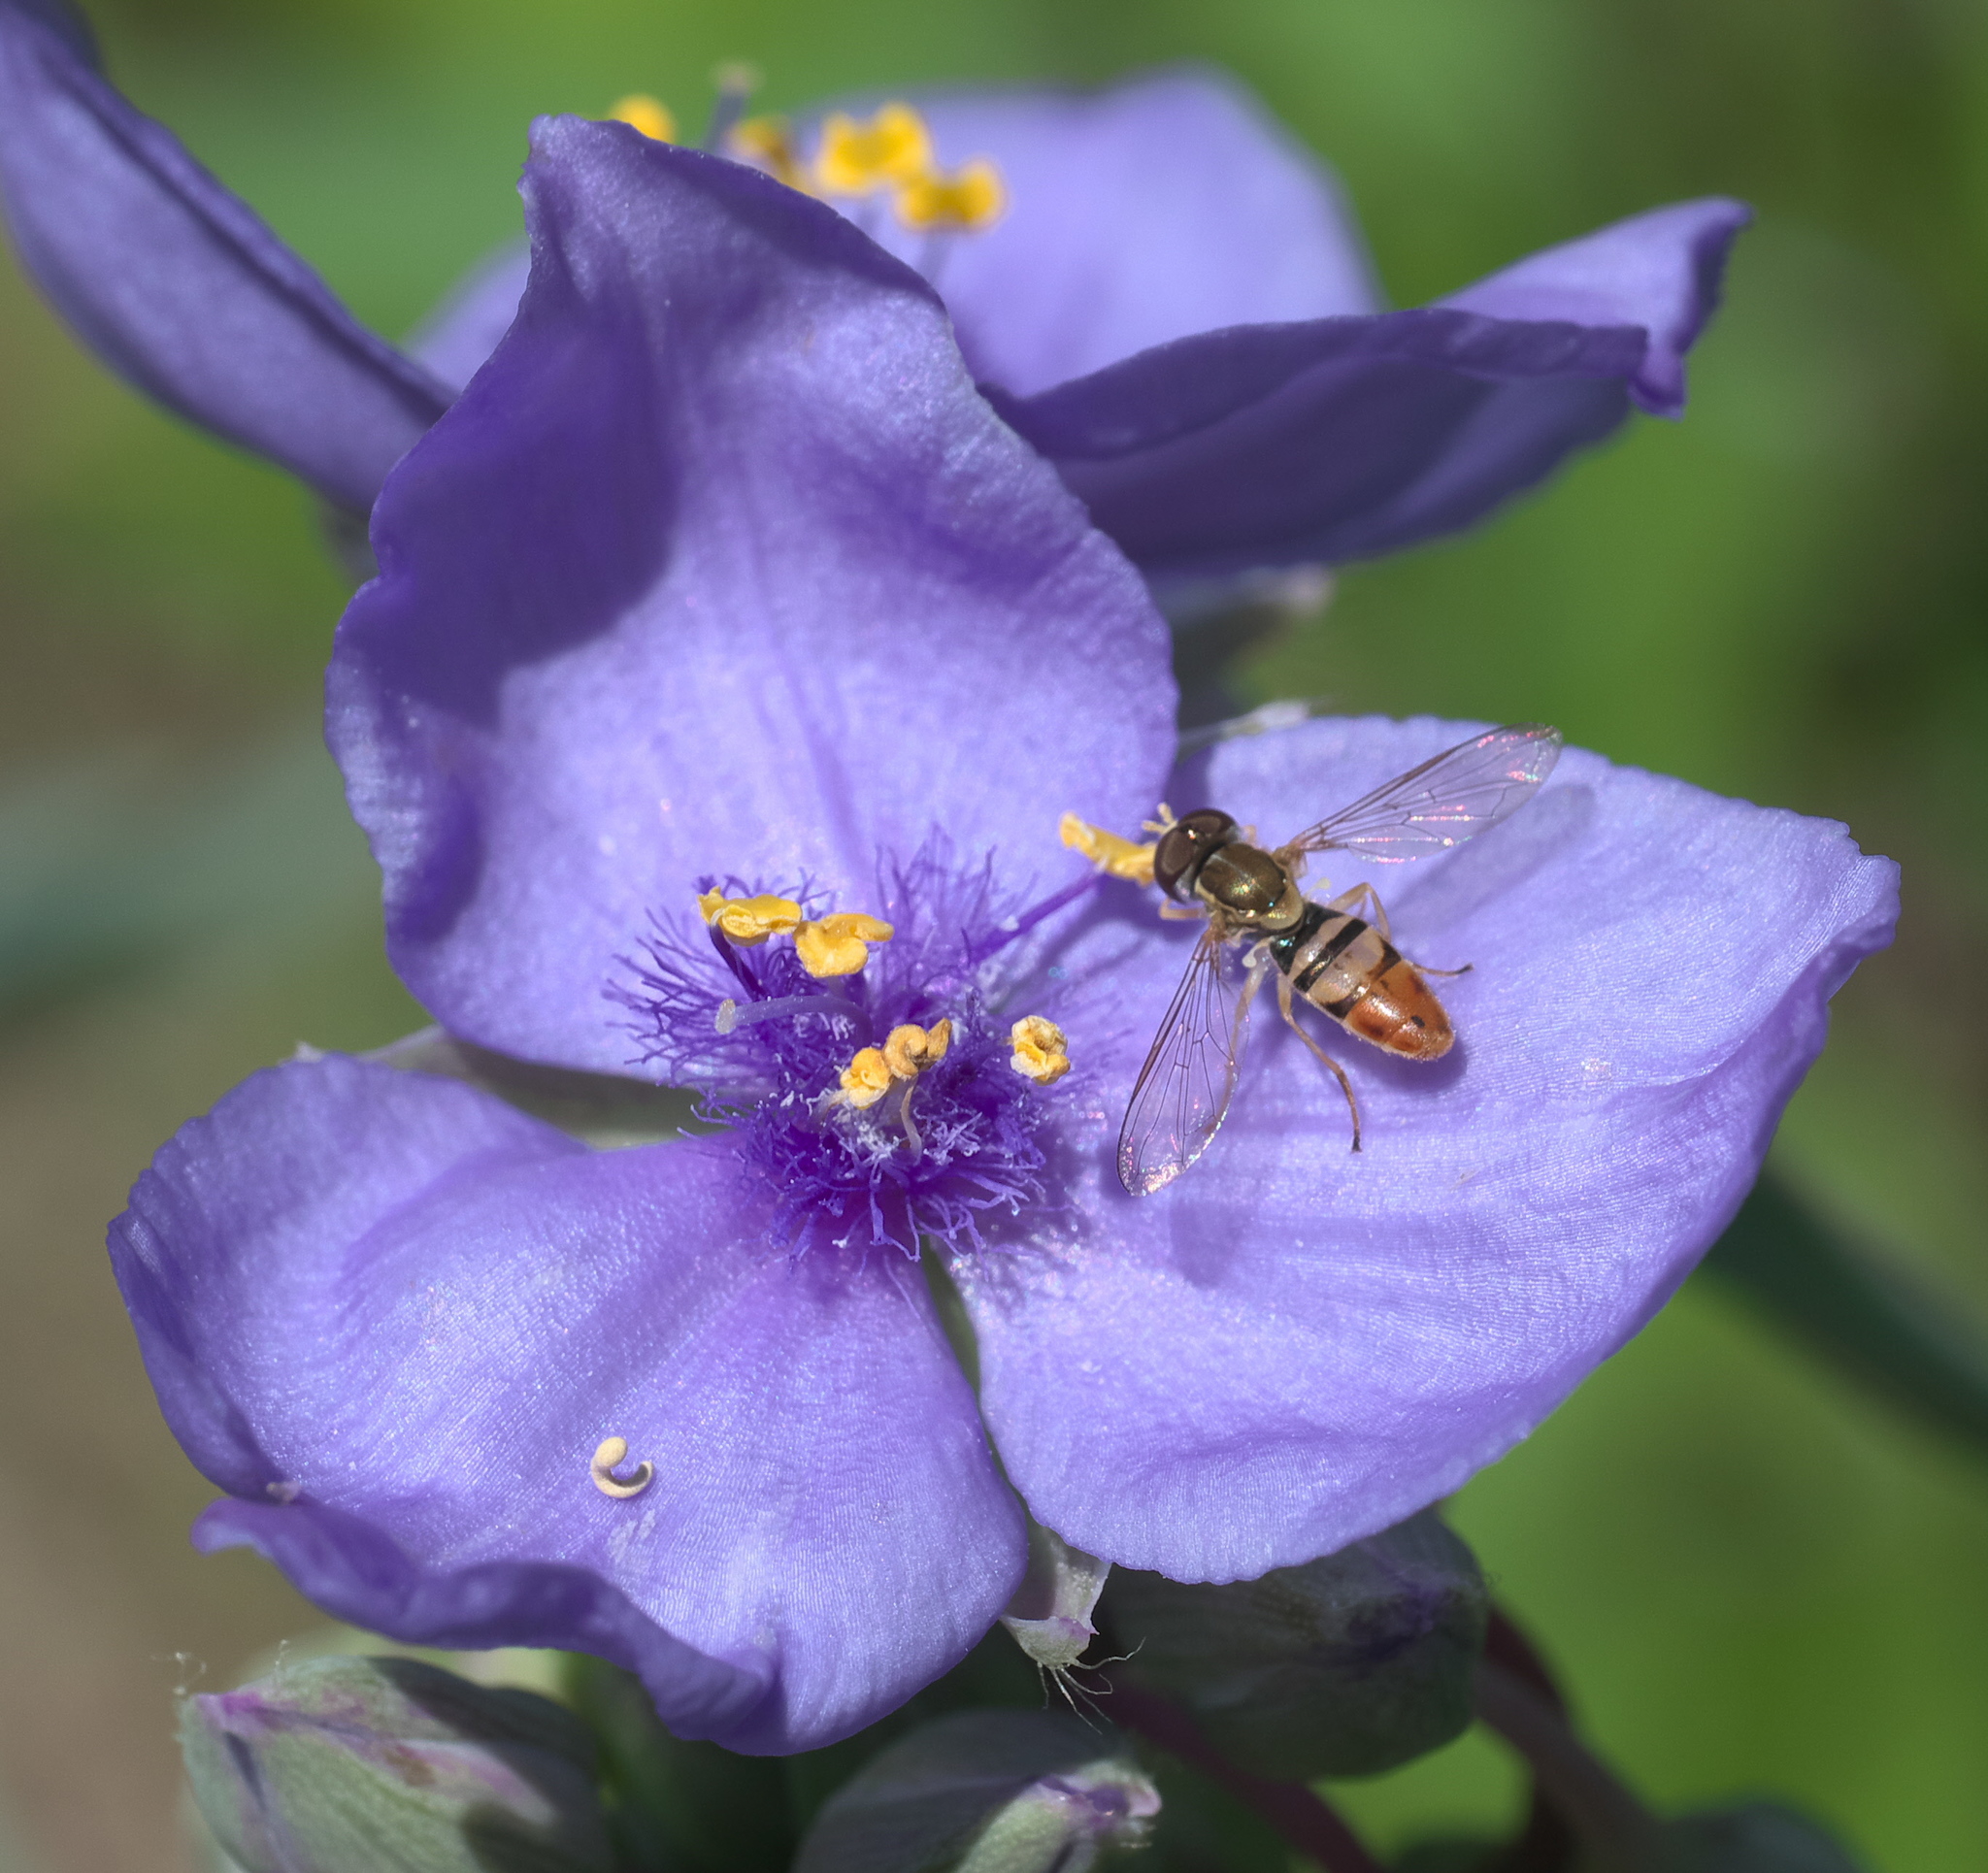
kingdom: Animalia
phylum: Arthropoda
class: Insecta
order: Diptera
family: Syrphidae
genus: Toxomerus
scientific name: Toxomerus marginatus
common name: Syrphid fly
